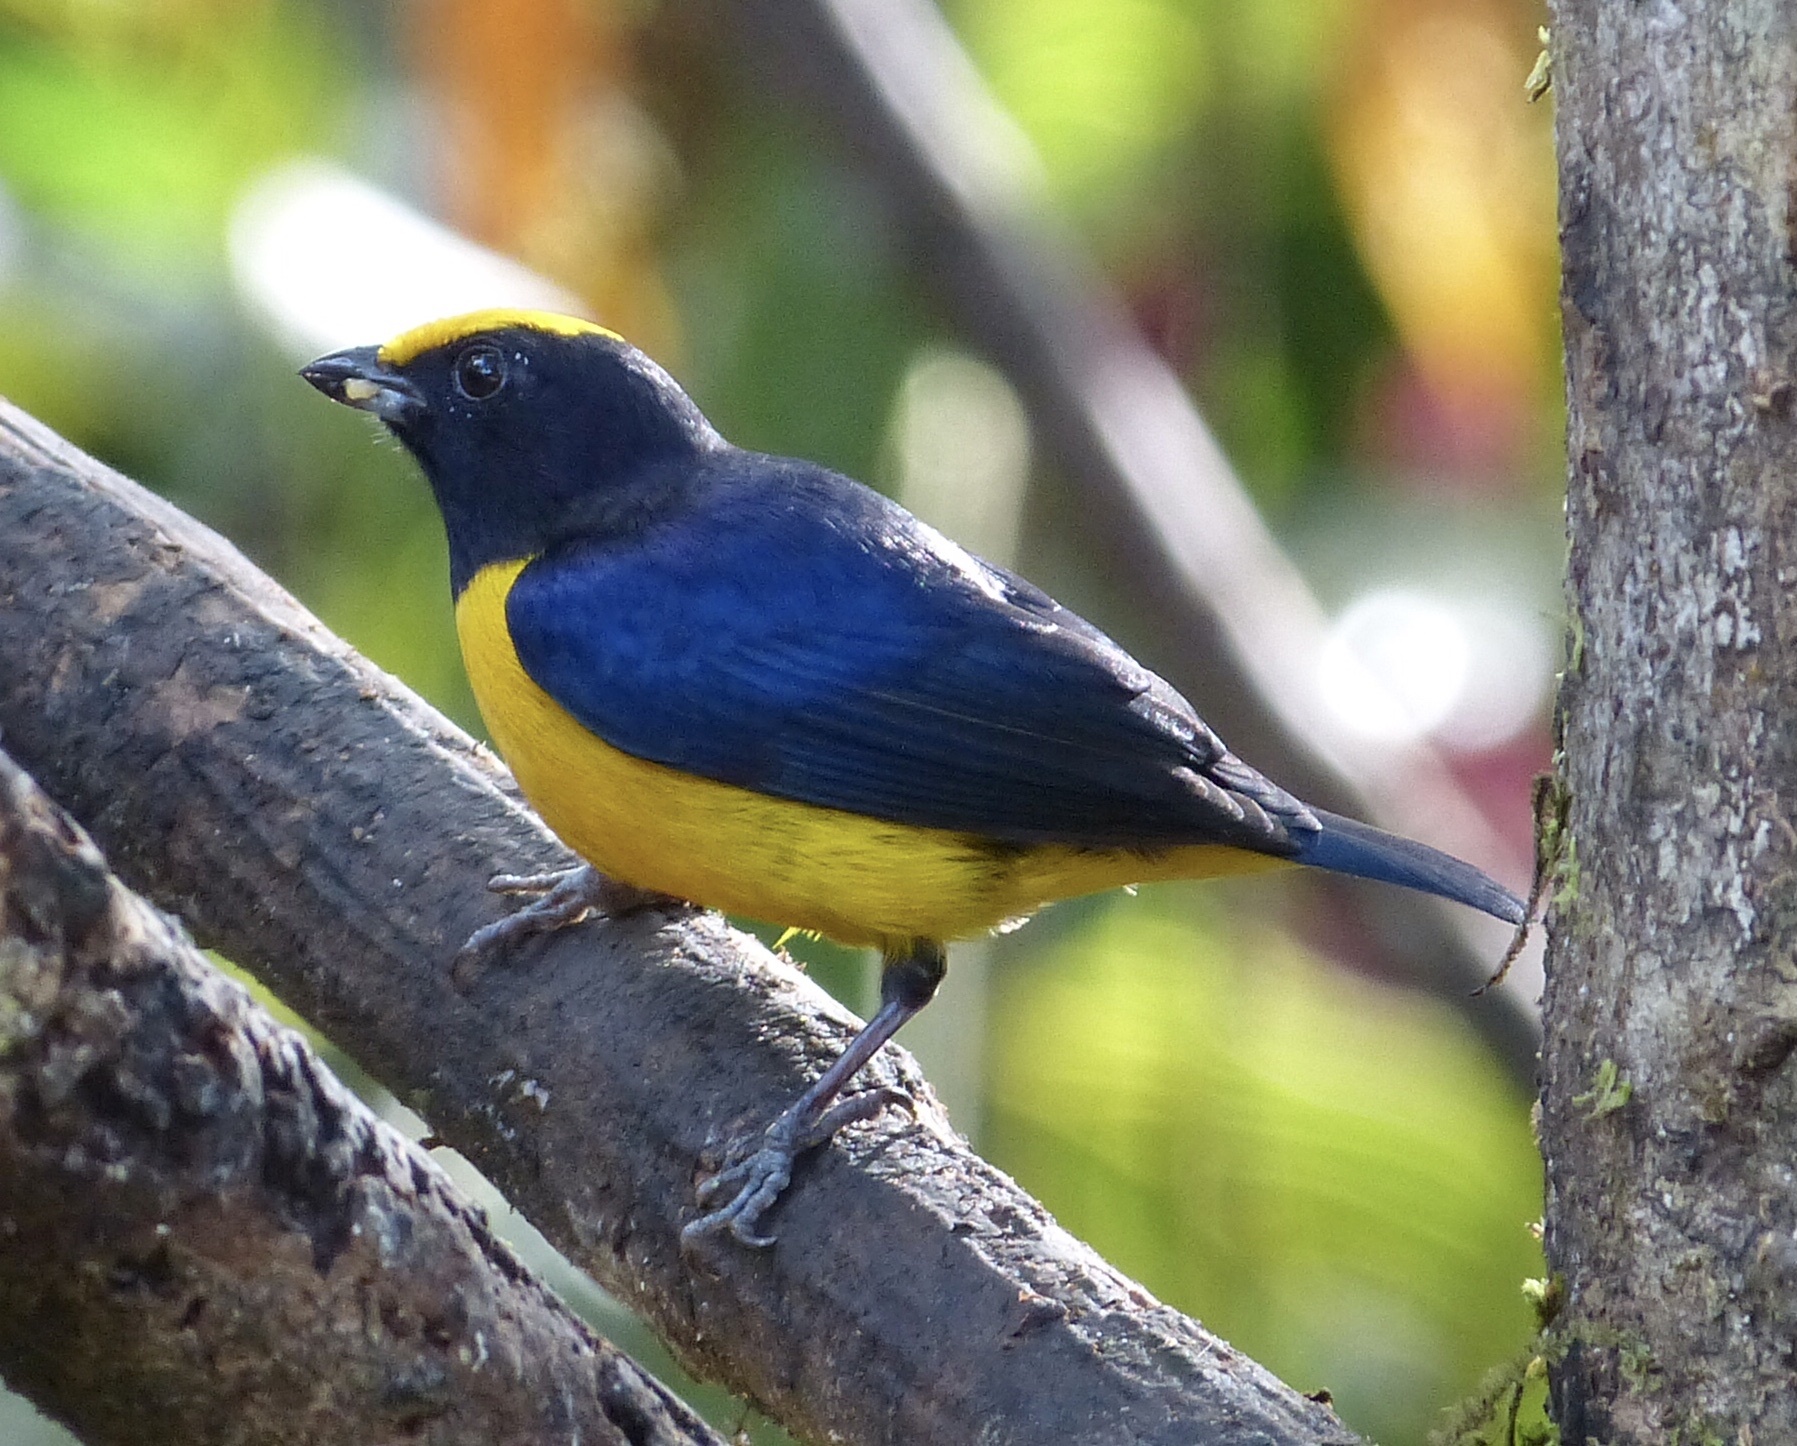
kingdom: Animalia
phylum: Chordata
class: Aves
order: Passeriformes
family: Fringillidae
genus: Euphonia
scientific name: Euphonia xanthogaster
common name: Orange-bellied euphonia
